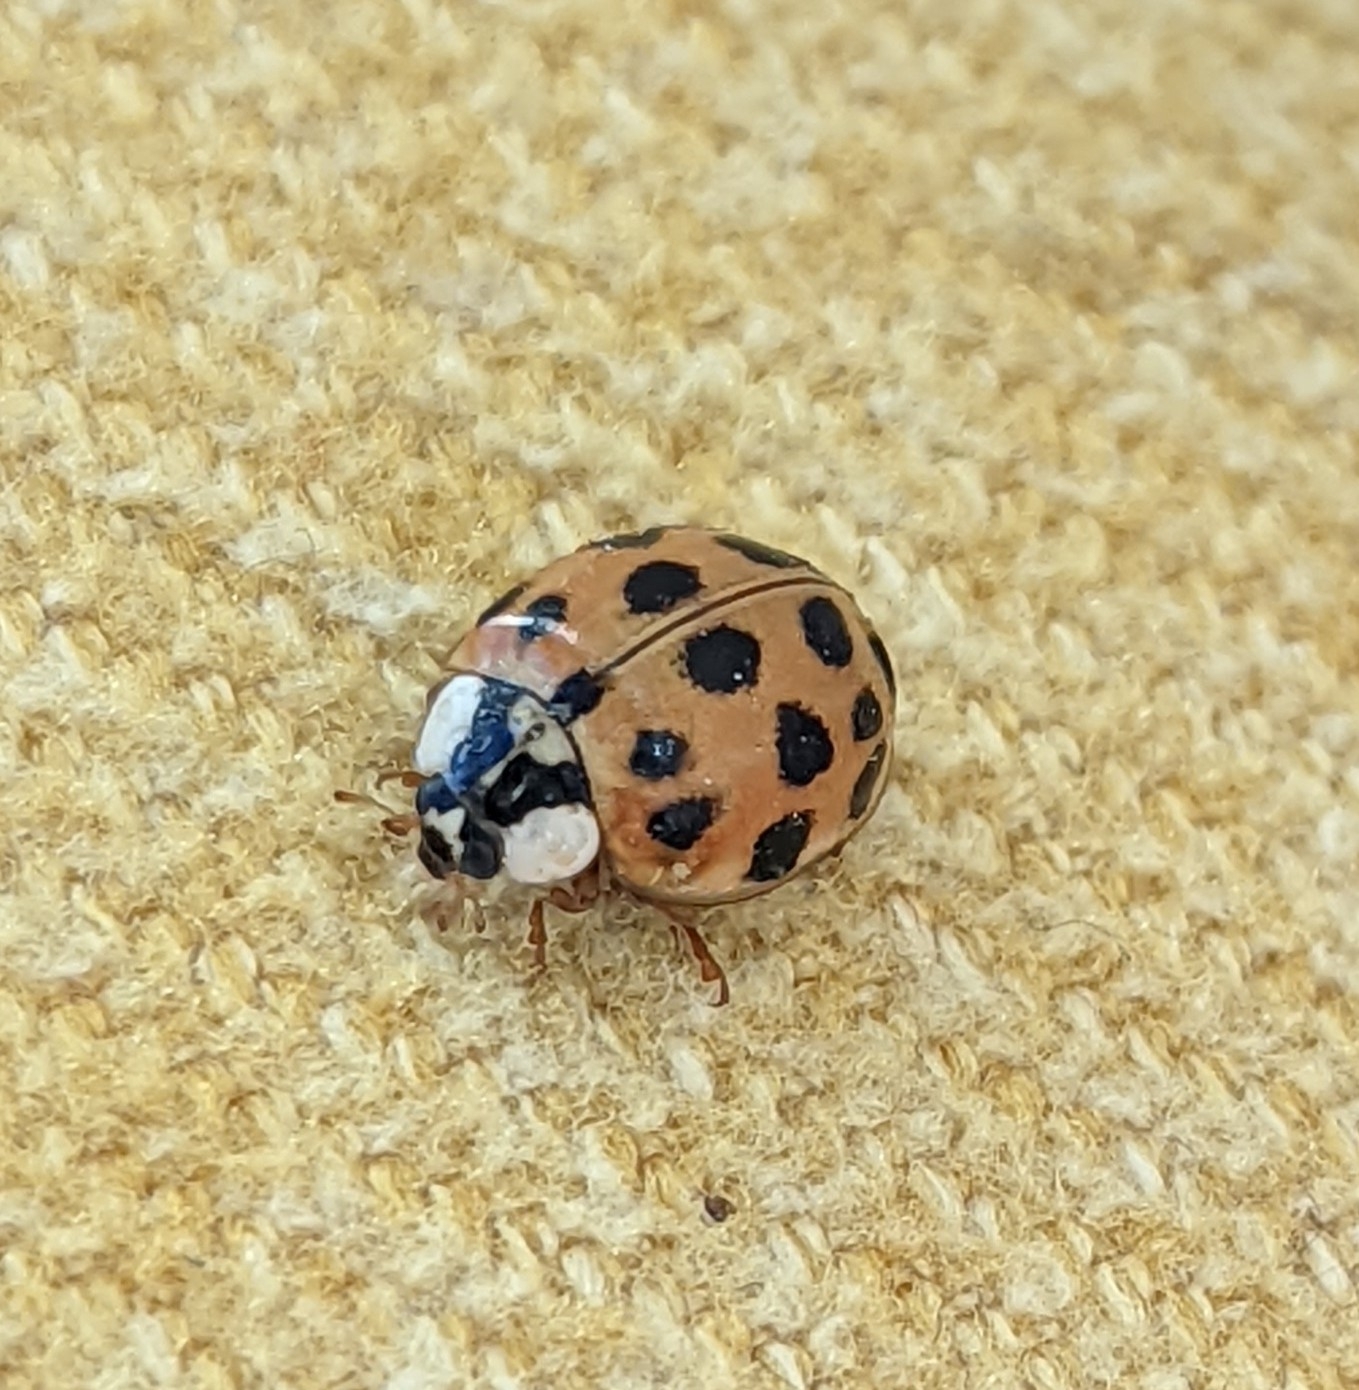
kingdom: Animalia
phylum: Arthropoda
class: Insecta
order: Coleoptera
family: Coccinellidae
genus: Harmonia
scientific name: Harmonia axyridis
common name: Harlequin ladybird
